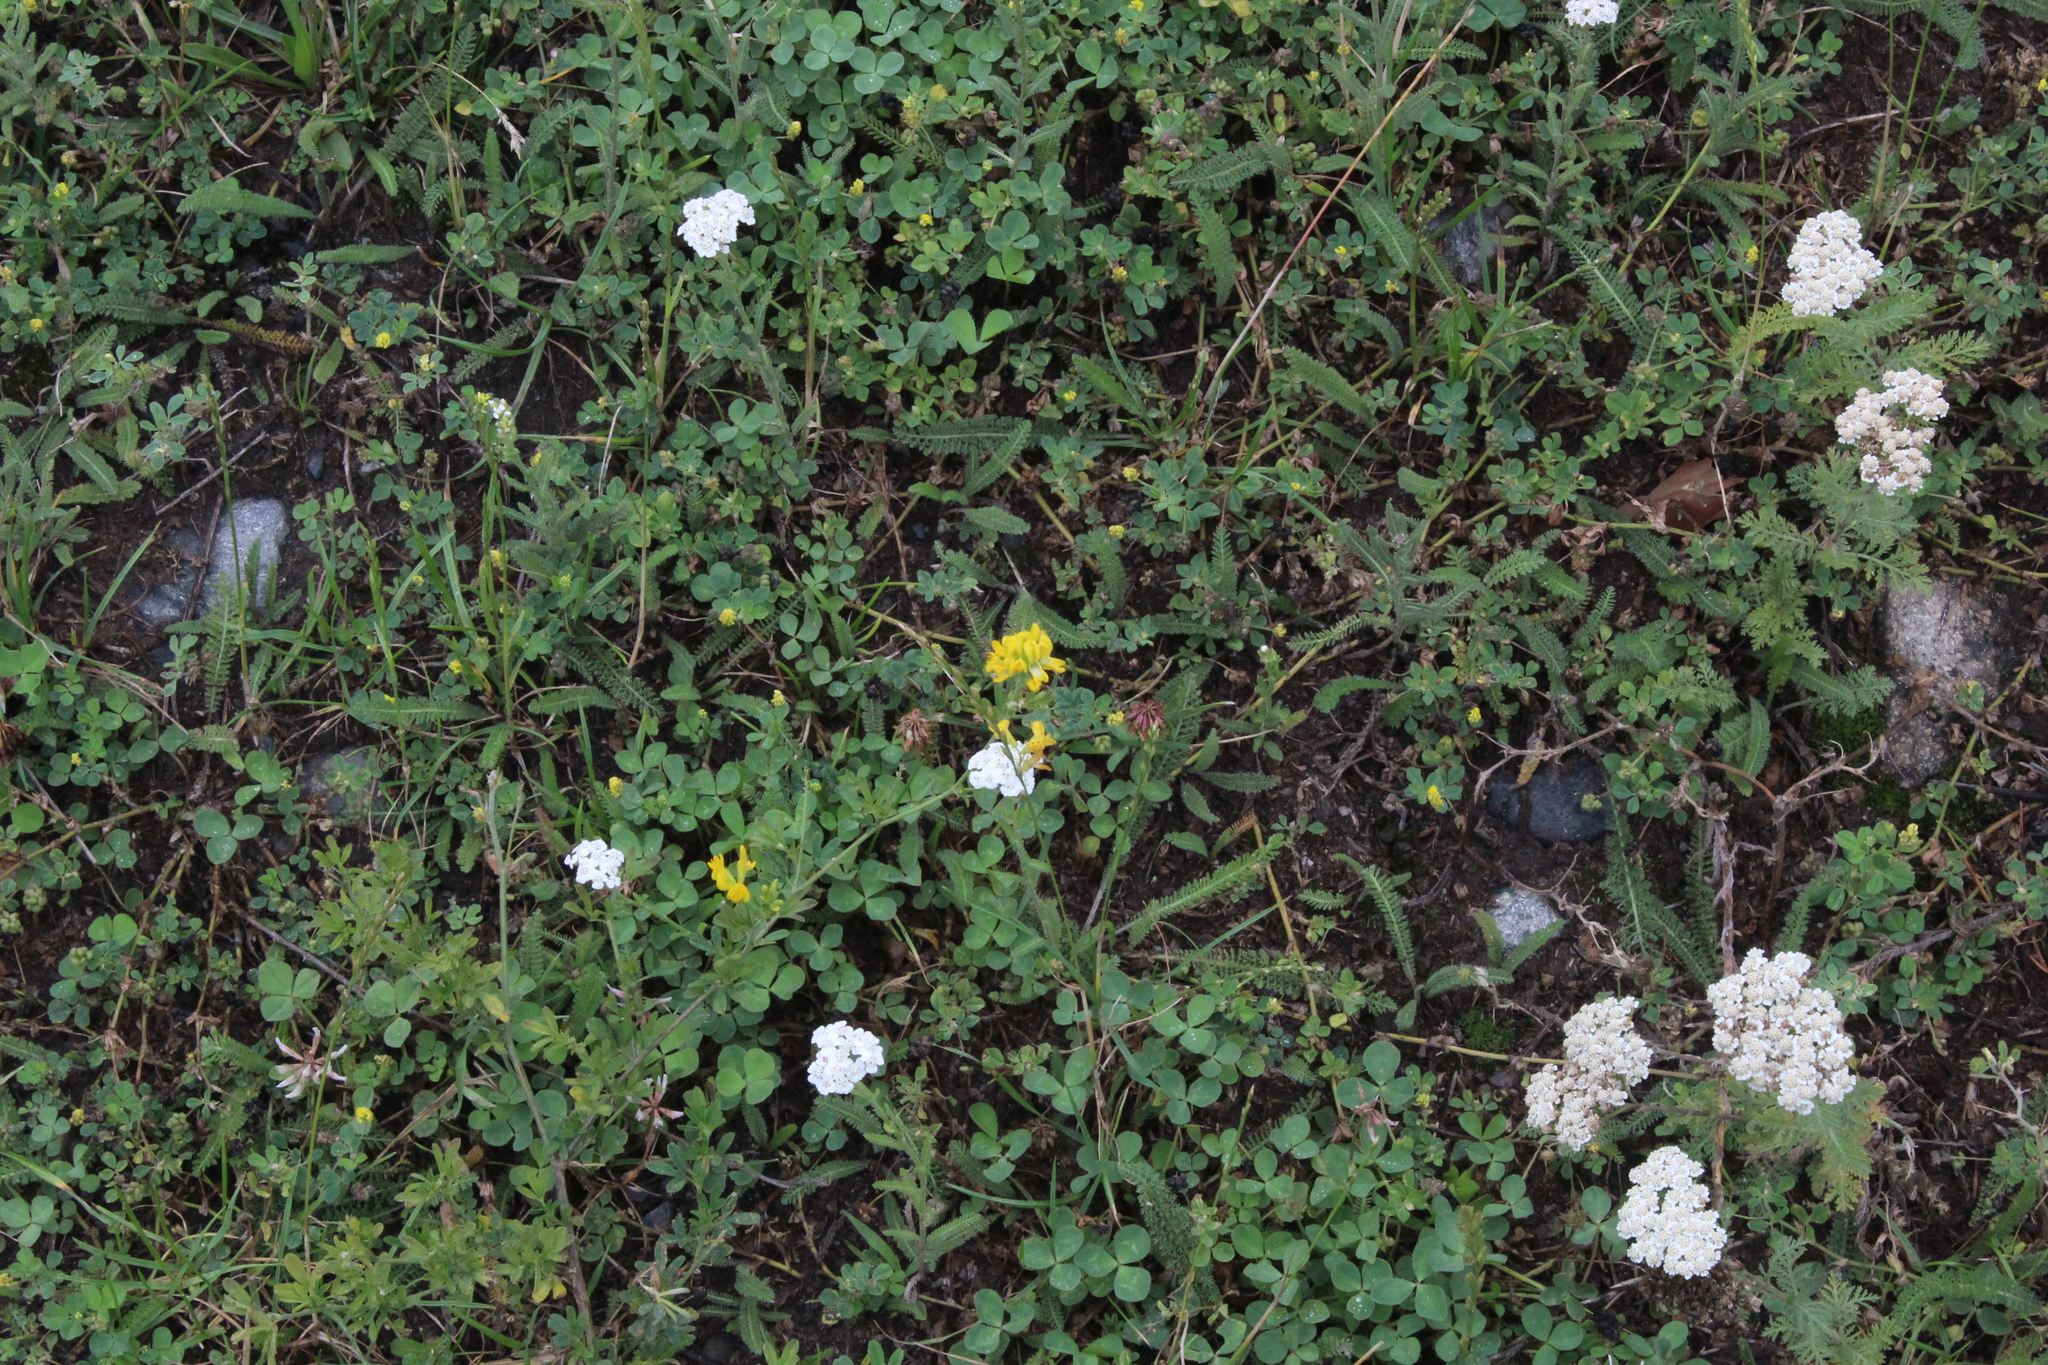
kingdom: Plantae
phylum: Tracheophyta
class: Magnoliopsida
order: Fabales
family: Fabaceae
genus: Medicago
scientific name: Medicago falcata
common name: Sickle medick
